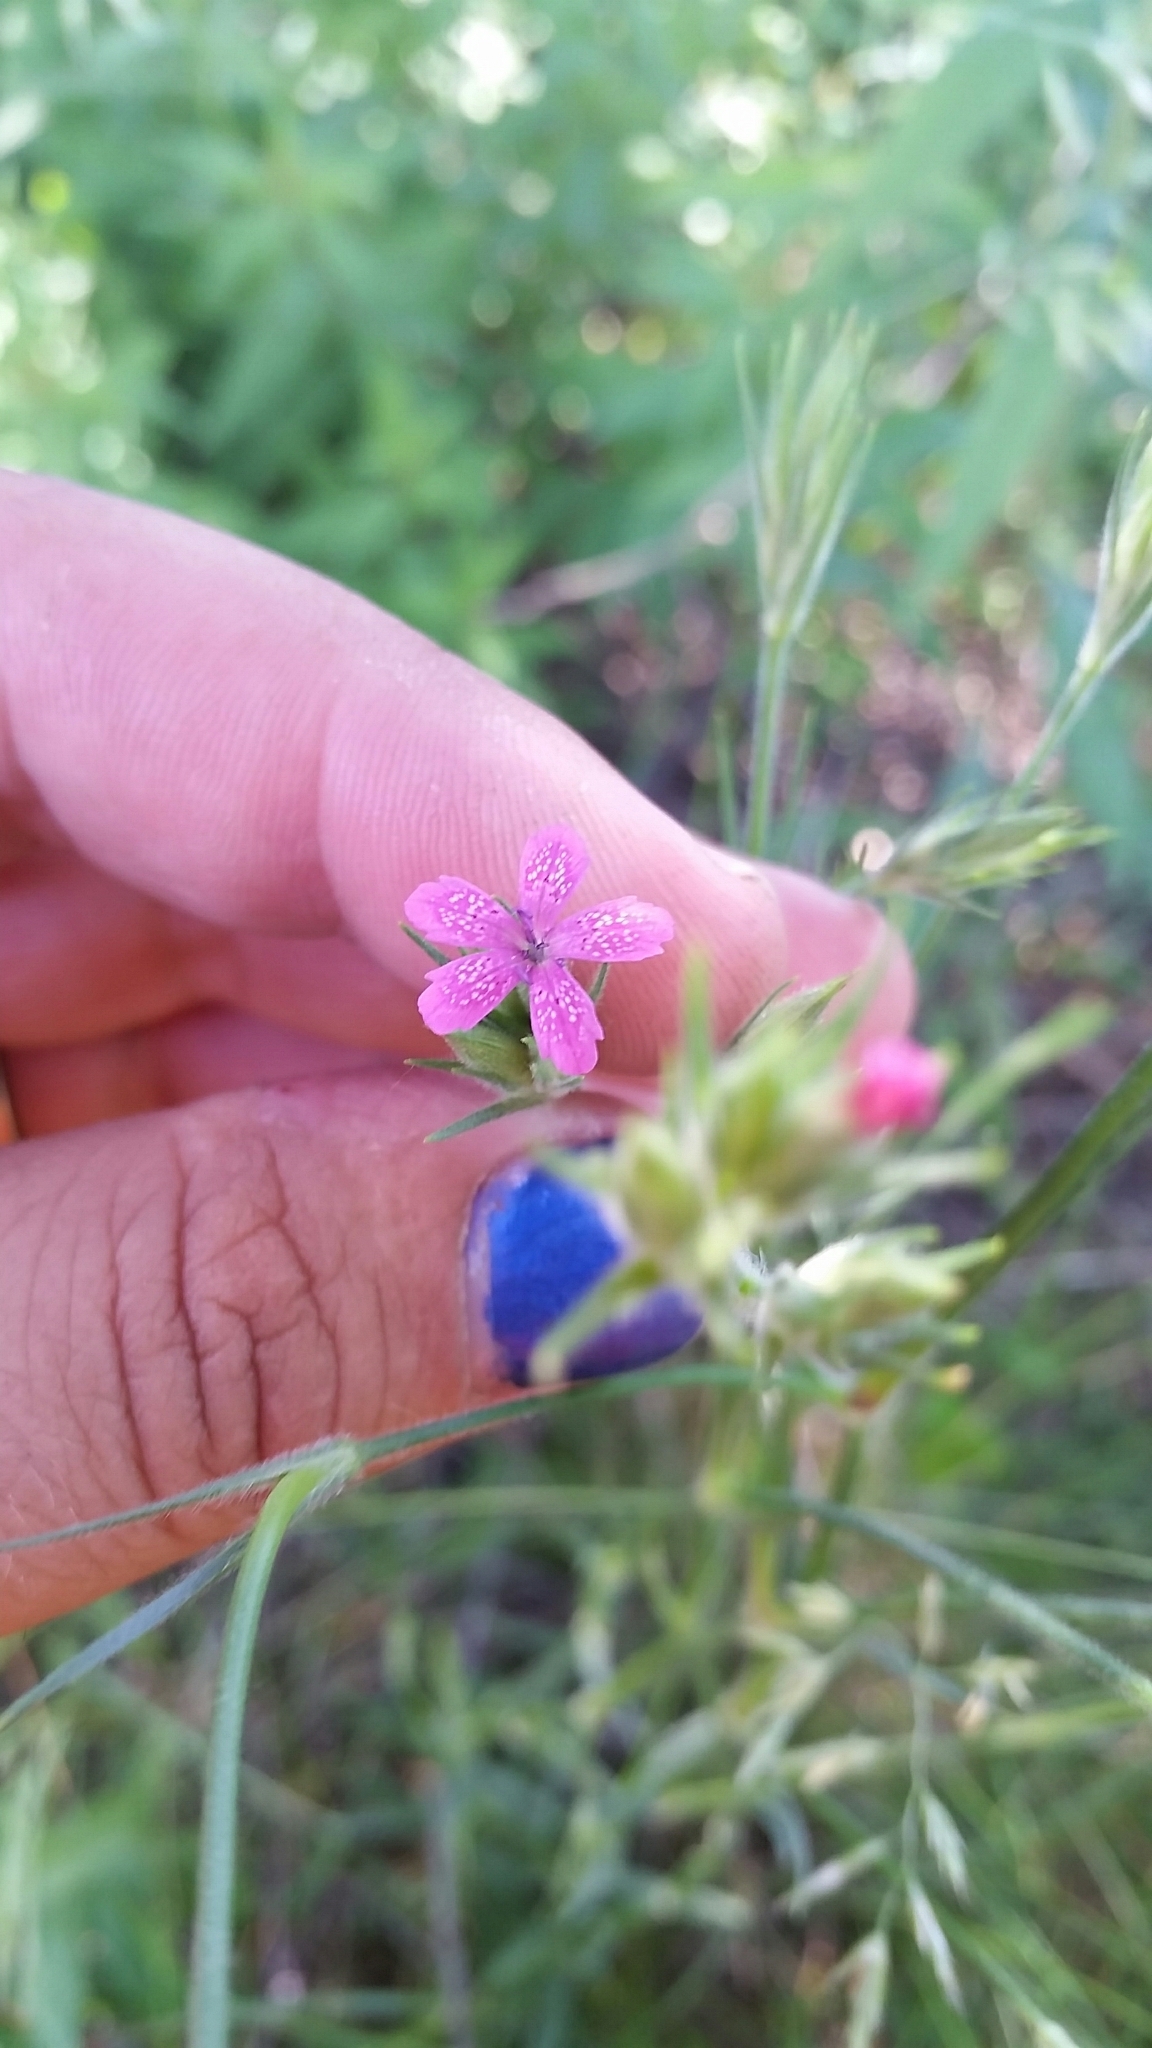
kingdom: Plantae
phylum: Tracheophyta
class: Magnoliopsida
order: Caryophyllales
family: Caryophyllaceae
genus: Dianthus
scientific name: Dianthus armeria
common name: Deptford pink
